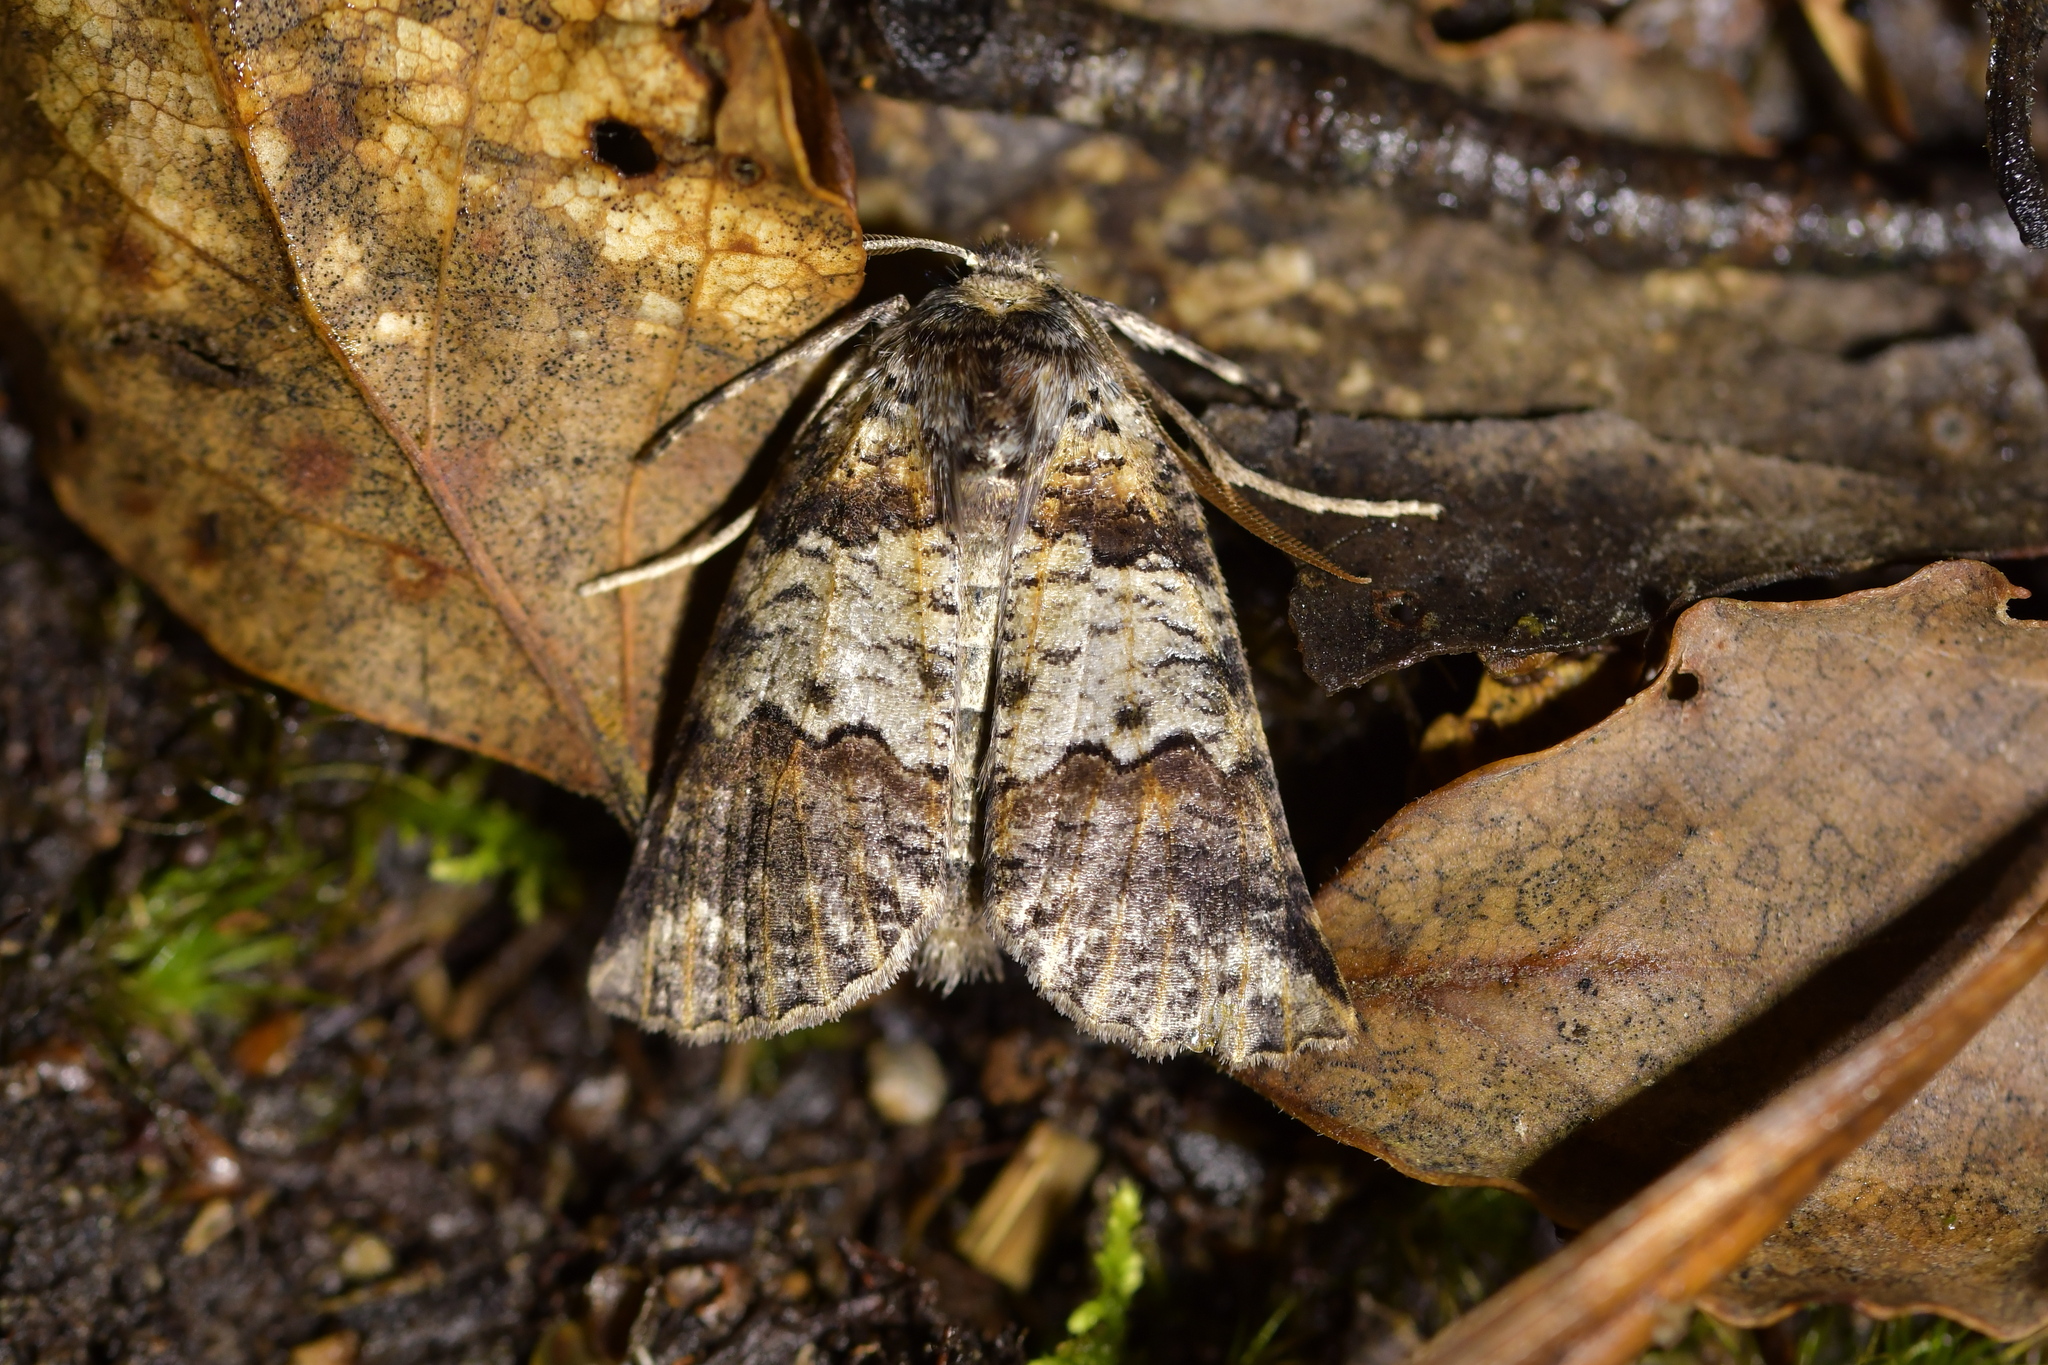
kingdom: Animalia
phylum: Arthropoda
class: Insecta
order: Lepidoptera
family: Geometridae
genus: Declana
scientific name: Declana
